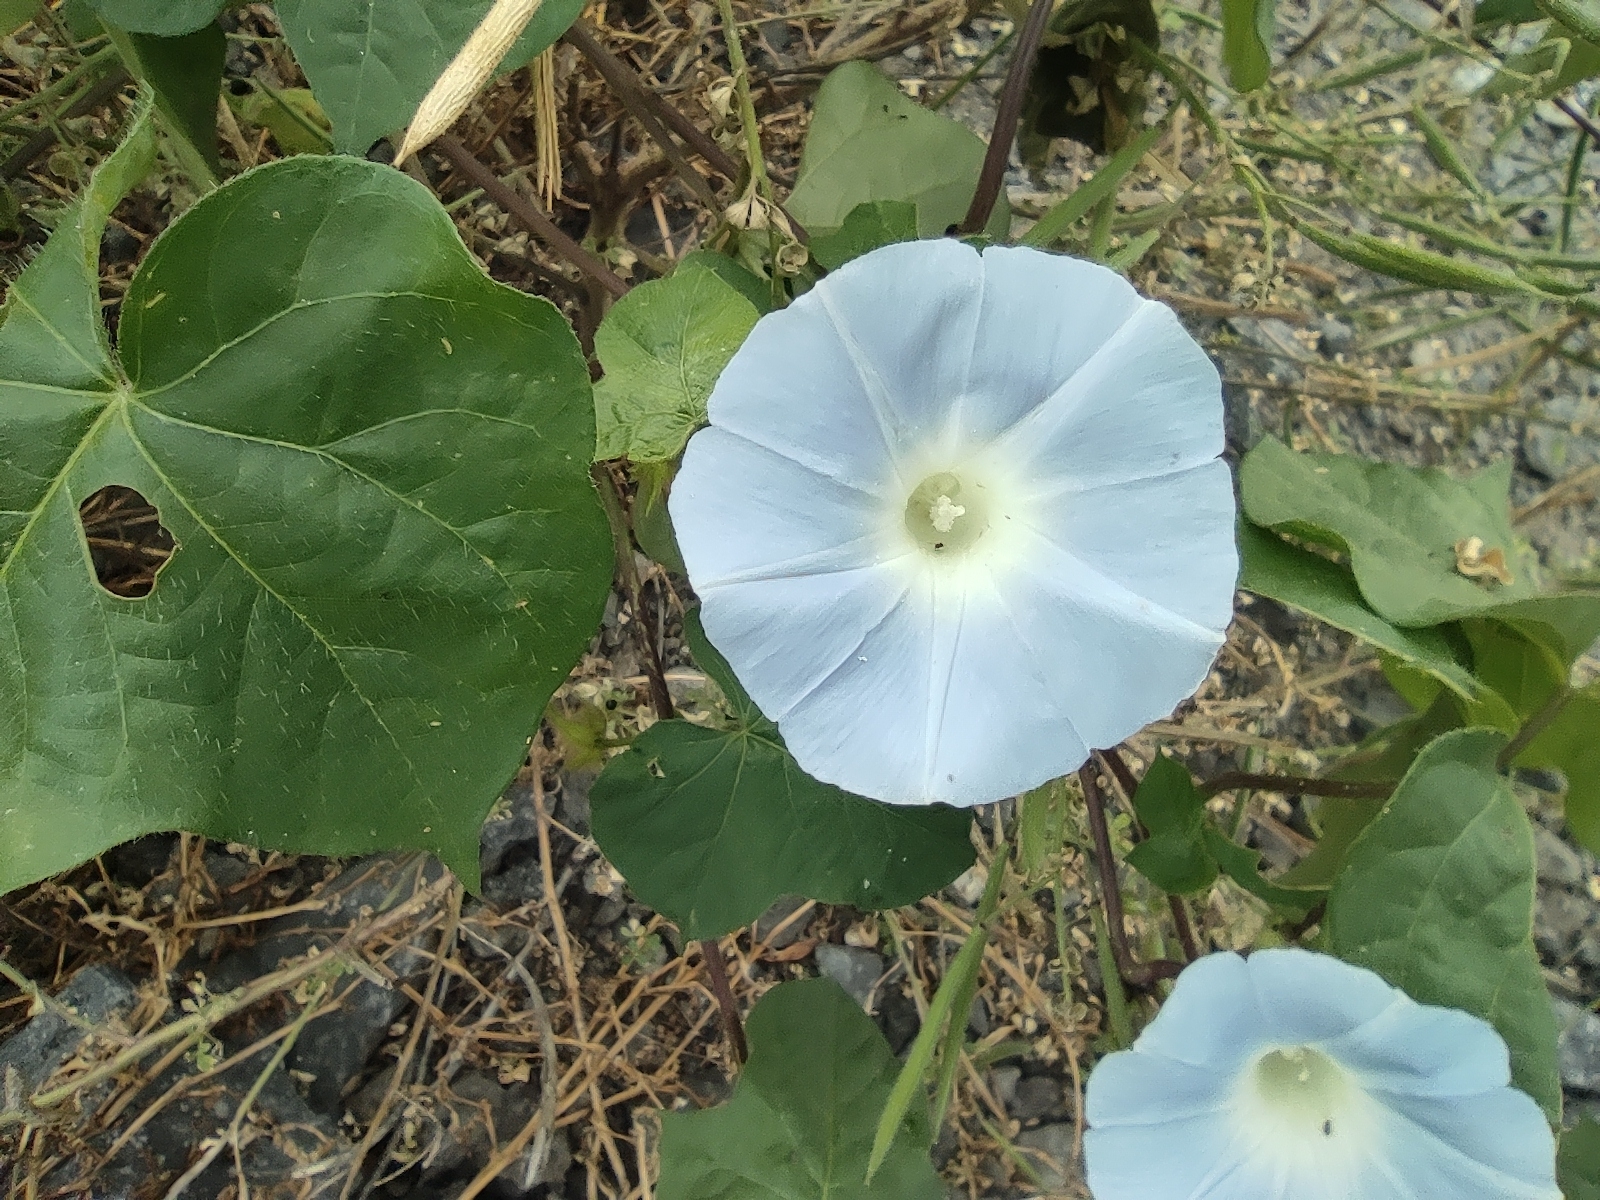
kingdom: Plantae
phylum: Tracheophyta
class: Magnoliopsida
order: Solanales
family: Convolvulaceae
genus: Ipomoea
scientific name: Ipomoea nil
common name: Japanese morning-glory
